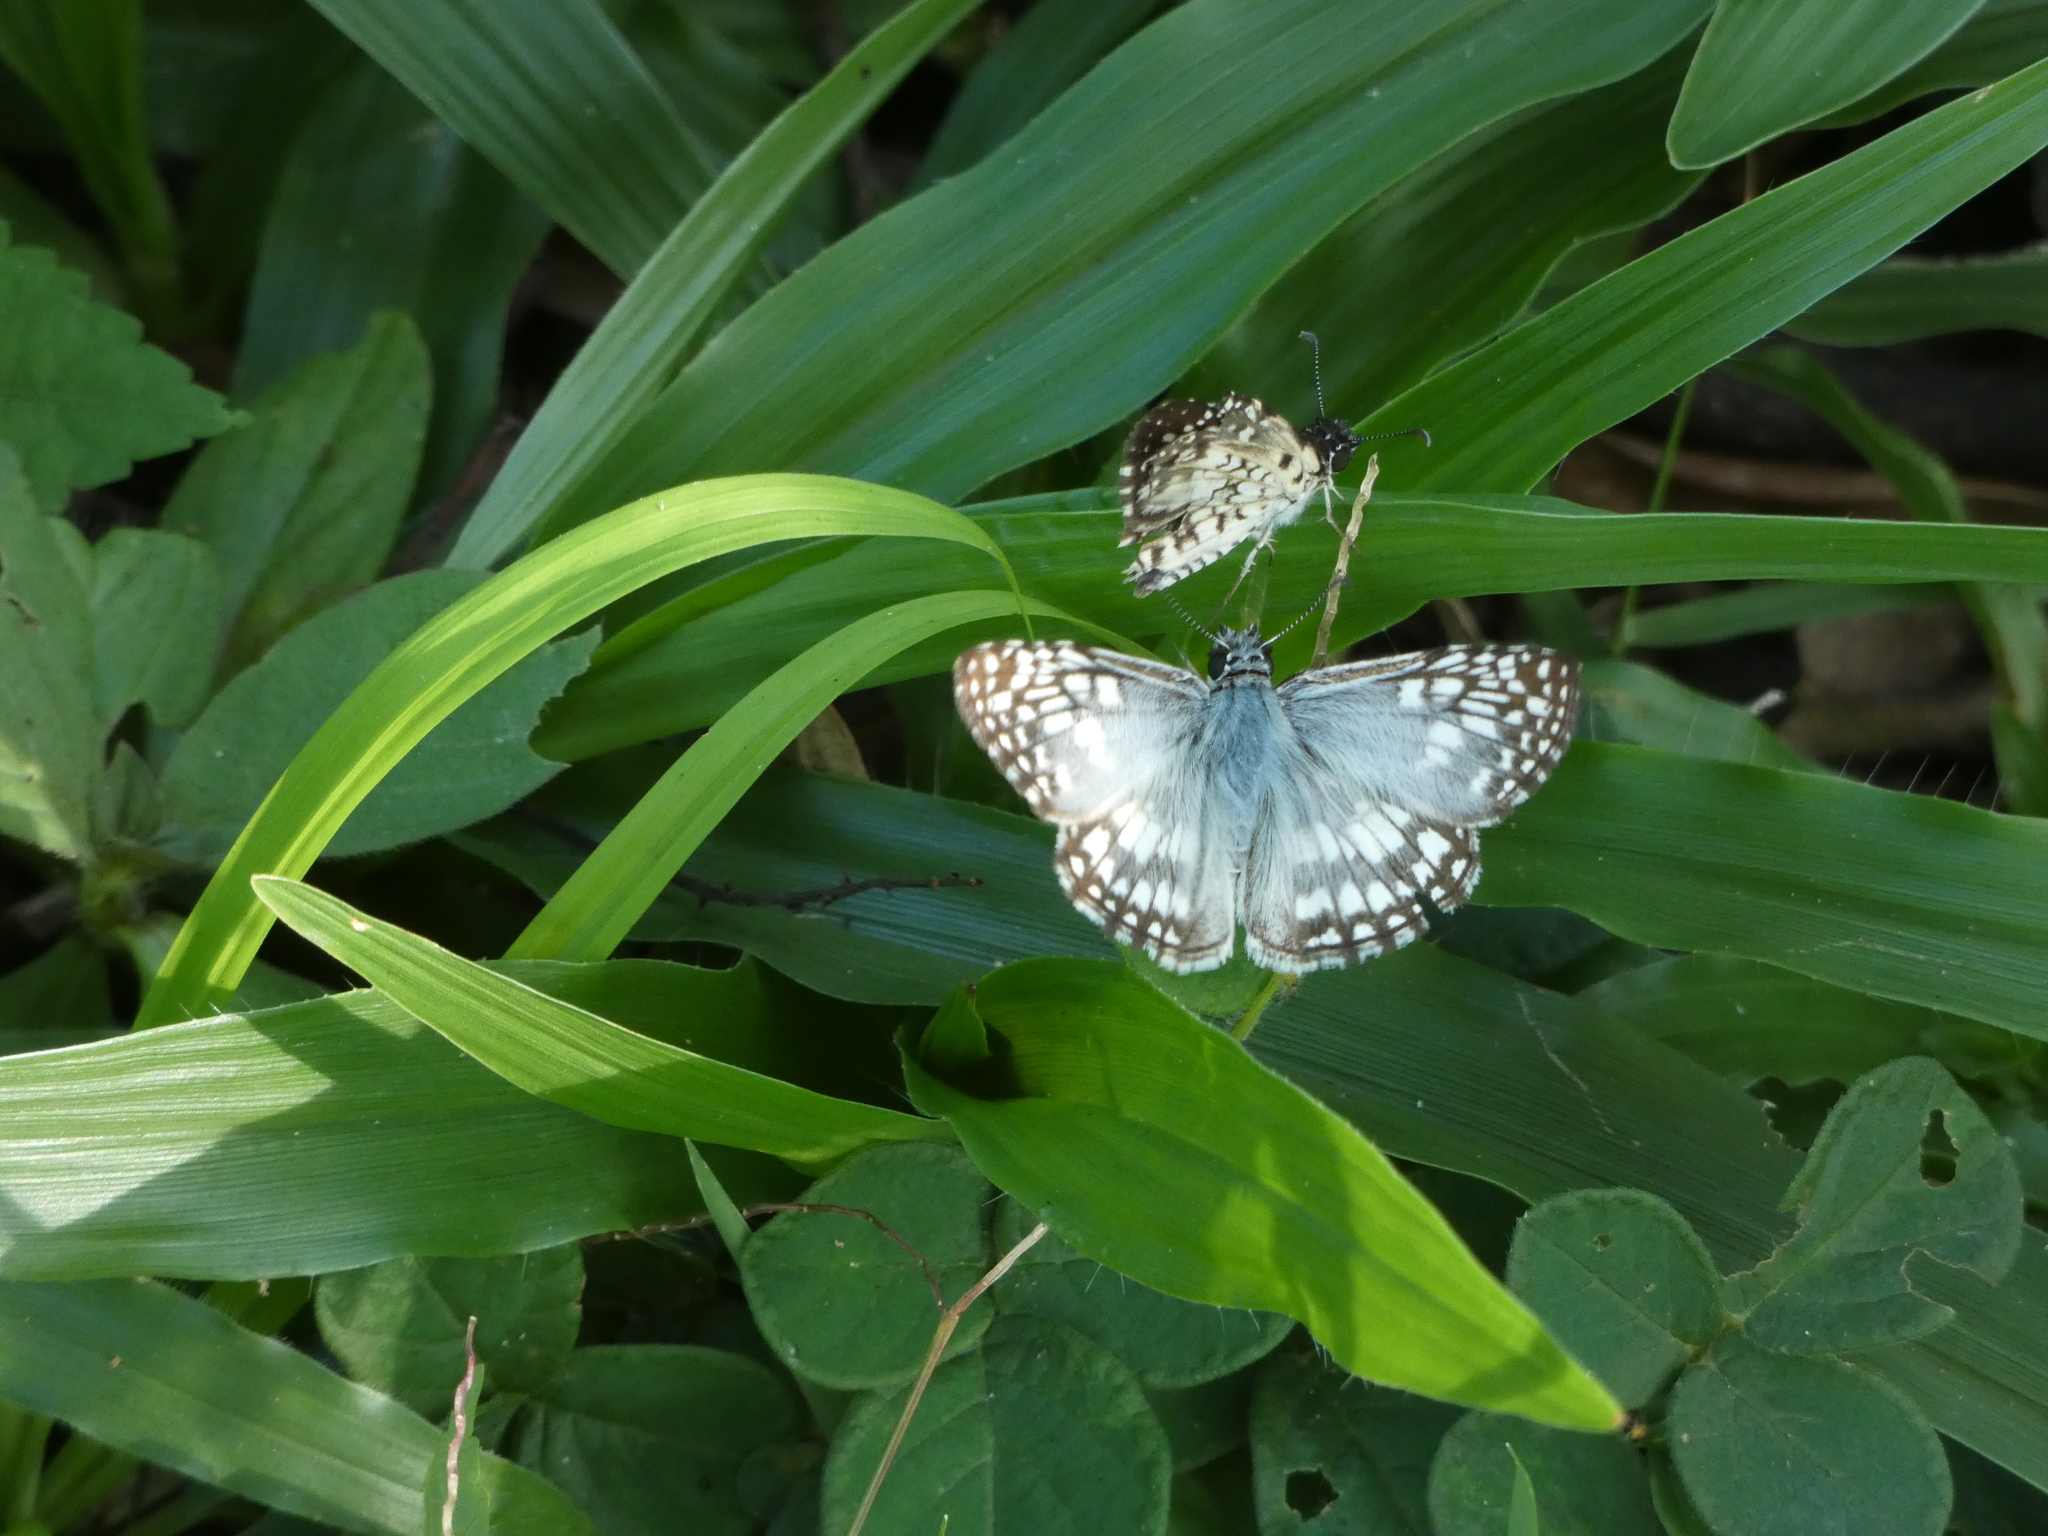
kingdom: Animalia
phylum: Arthropoda
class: Insecta
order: Lepidoptera
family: Hesperiidae
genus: Pyrgus
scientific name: Pyrgus oileus
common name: Tropical checkered-skipper
